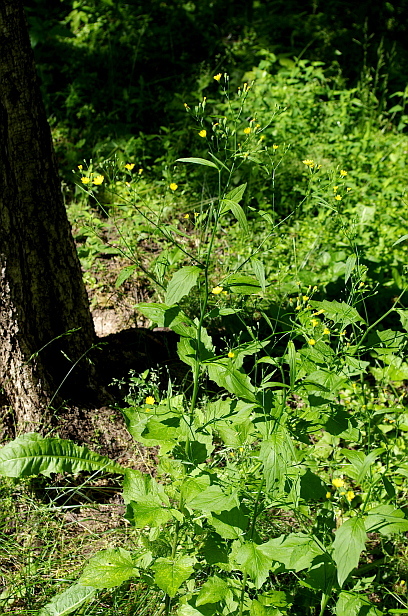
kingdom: Plantae
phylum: Tracheophyta
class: Magnoliopsida
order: Asterales
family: Asteraceae
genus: Lapsana
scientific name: Lapsana communis
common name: Nipplewort
